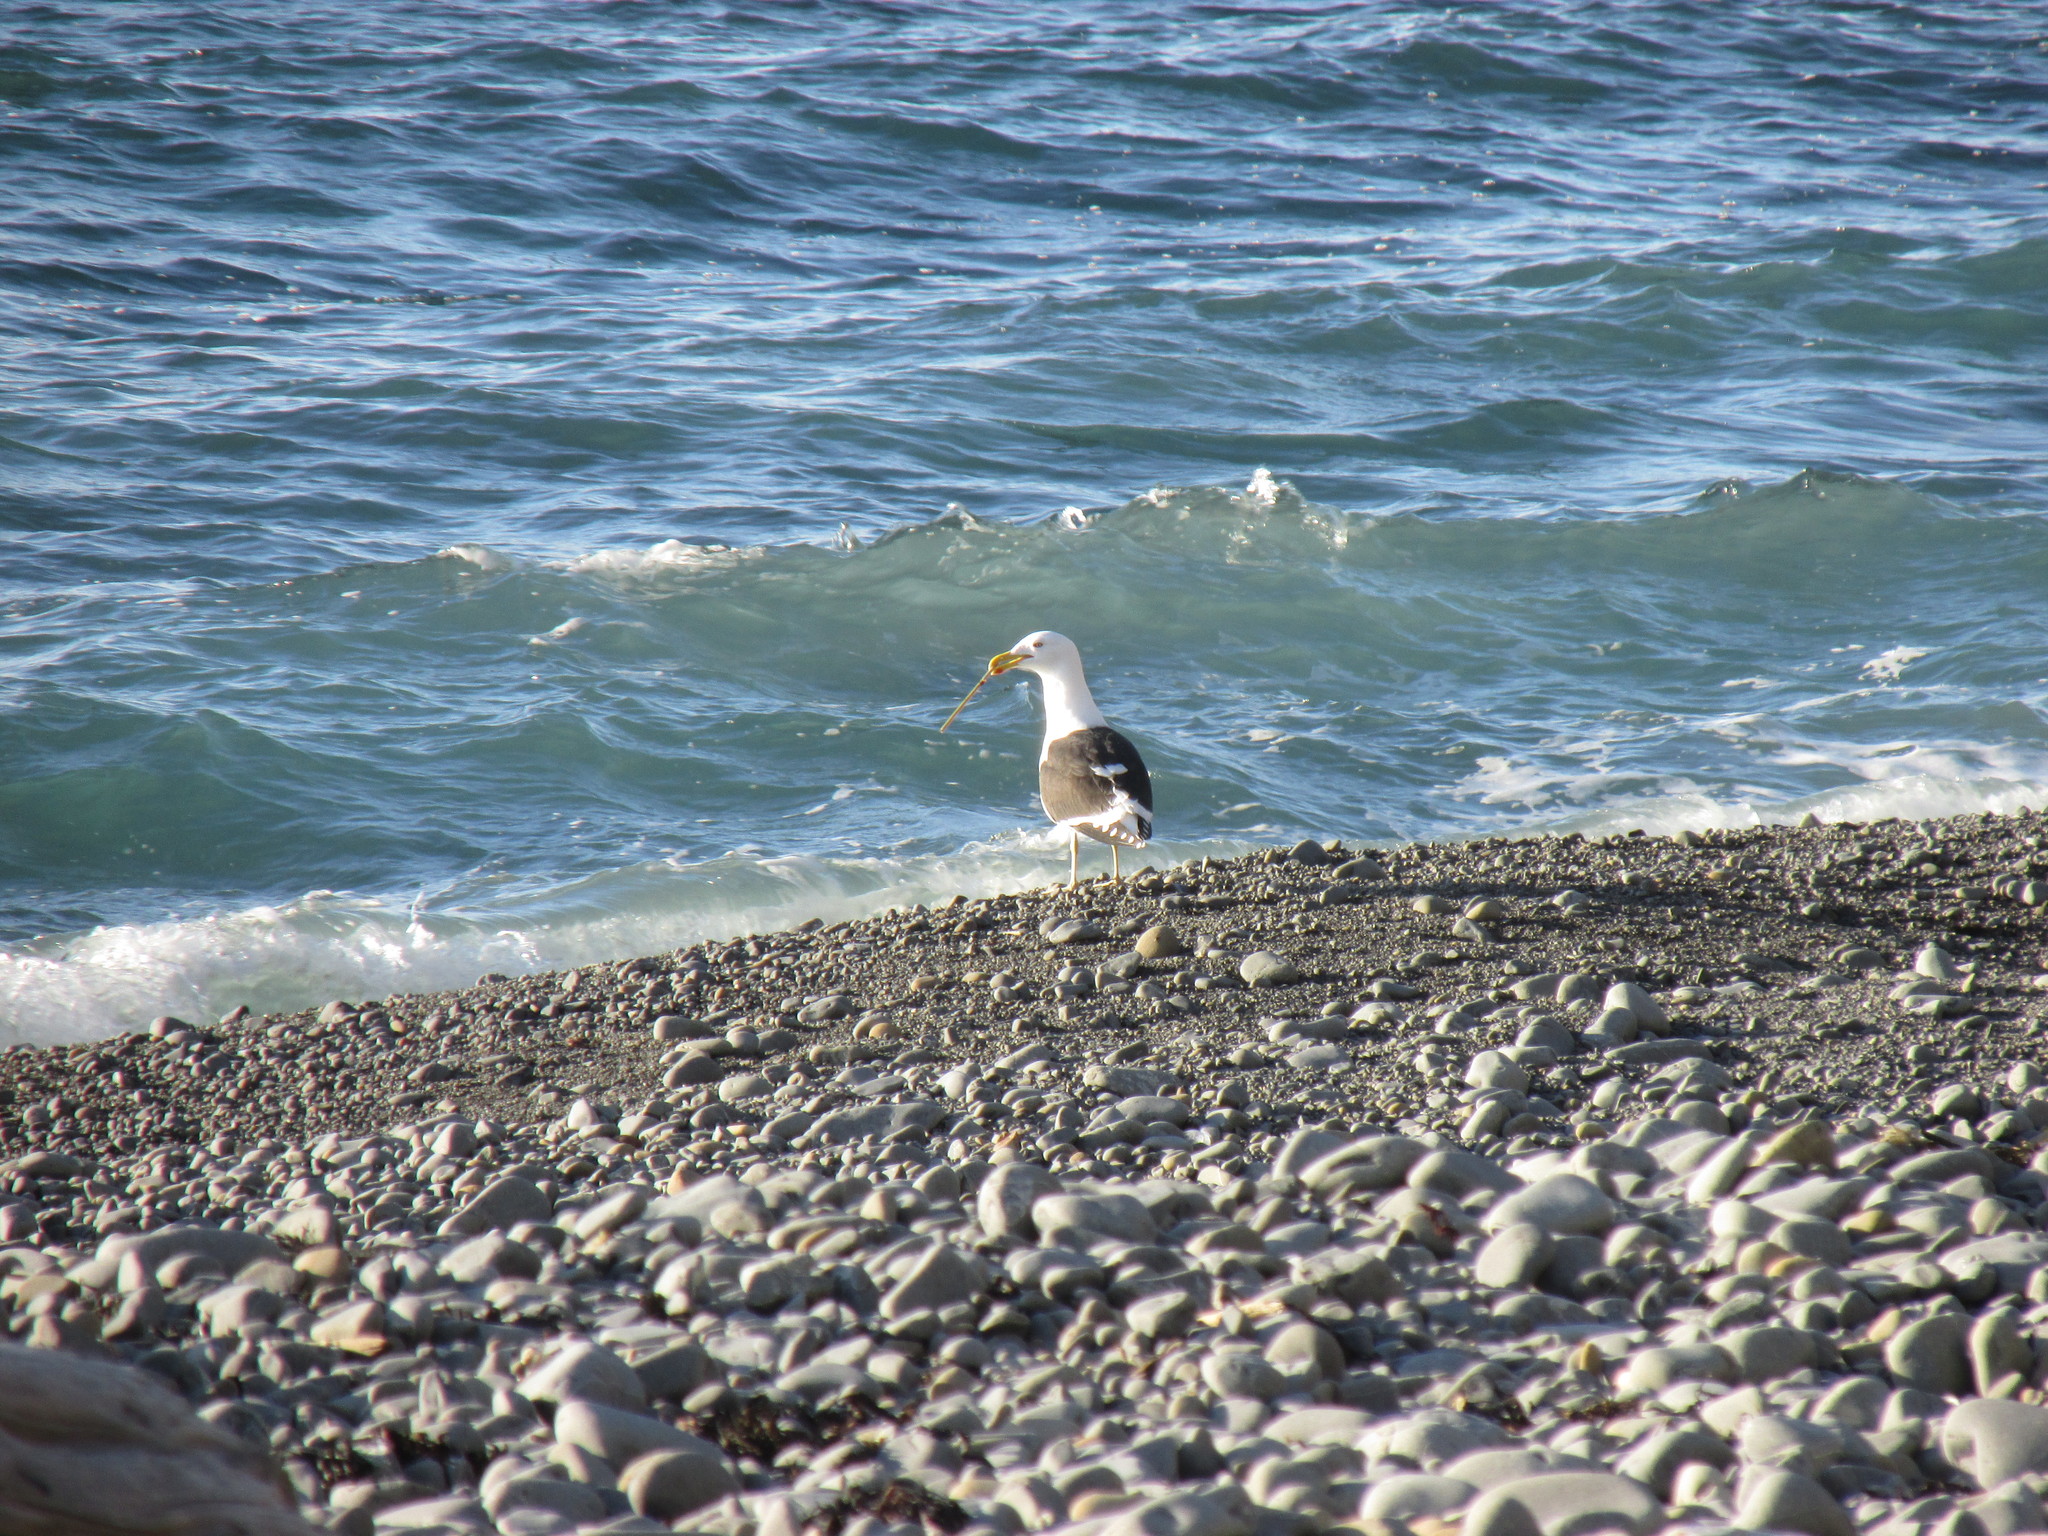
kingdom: Animalia
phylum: Chordata
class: Aves
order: Charadriiformes
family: Laridae
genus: Larus
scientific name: Larus dominicanus
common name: Kelp gull
